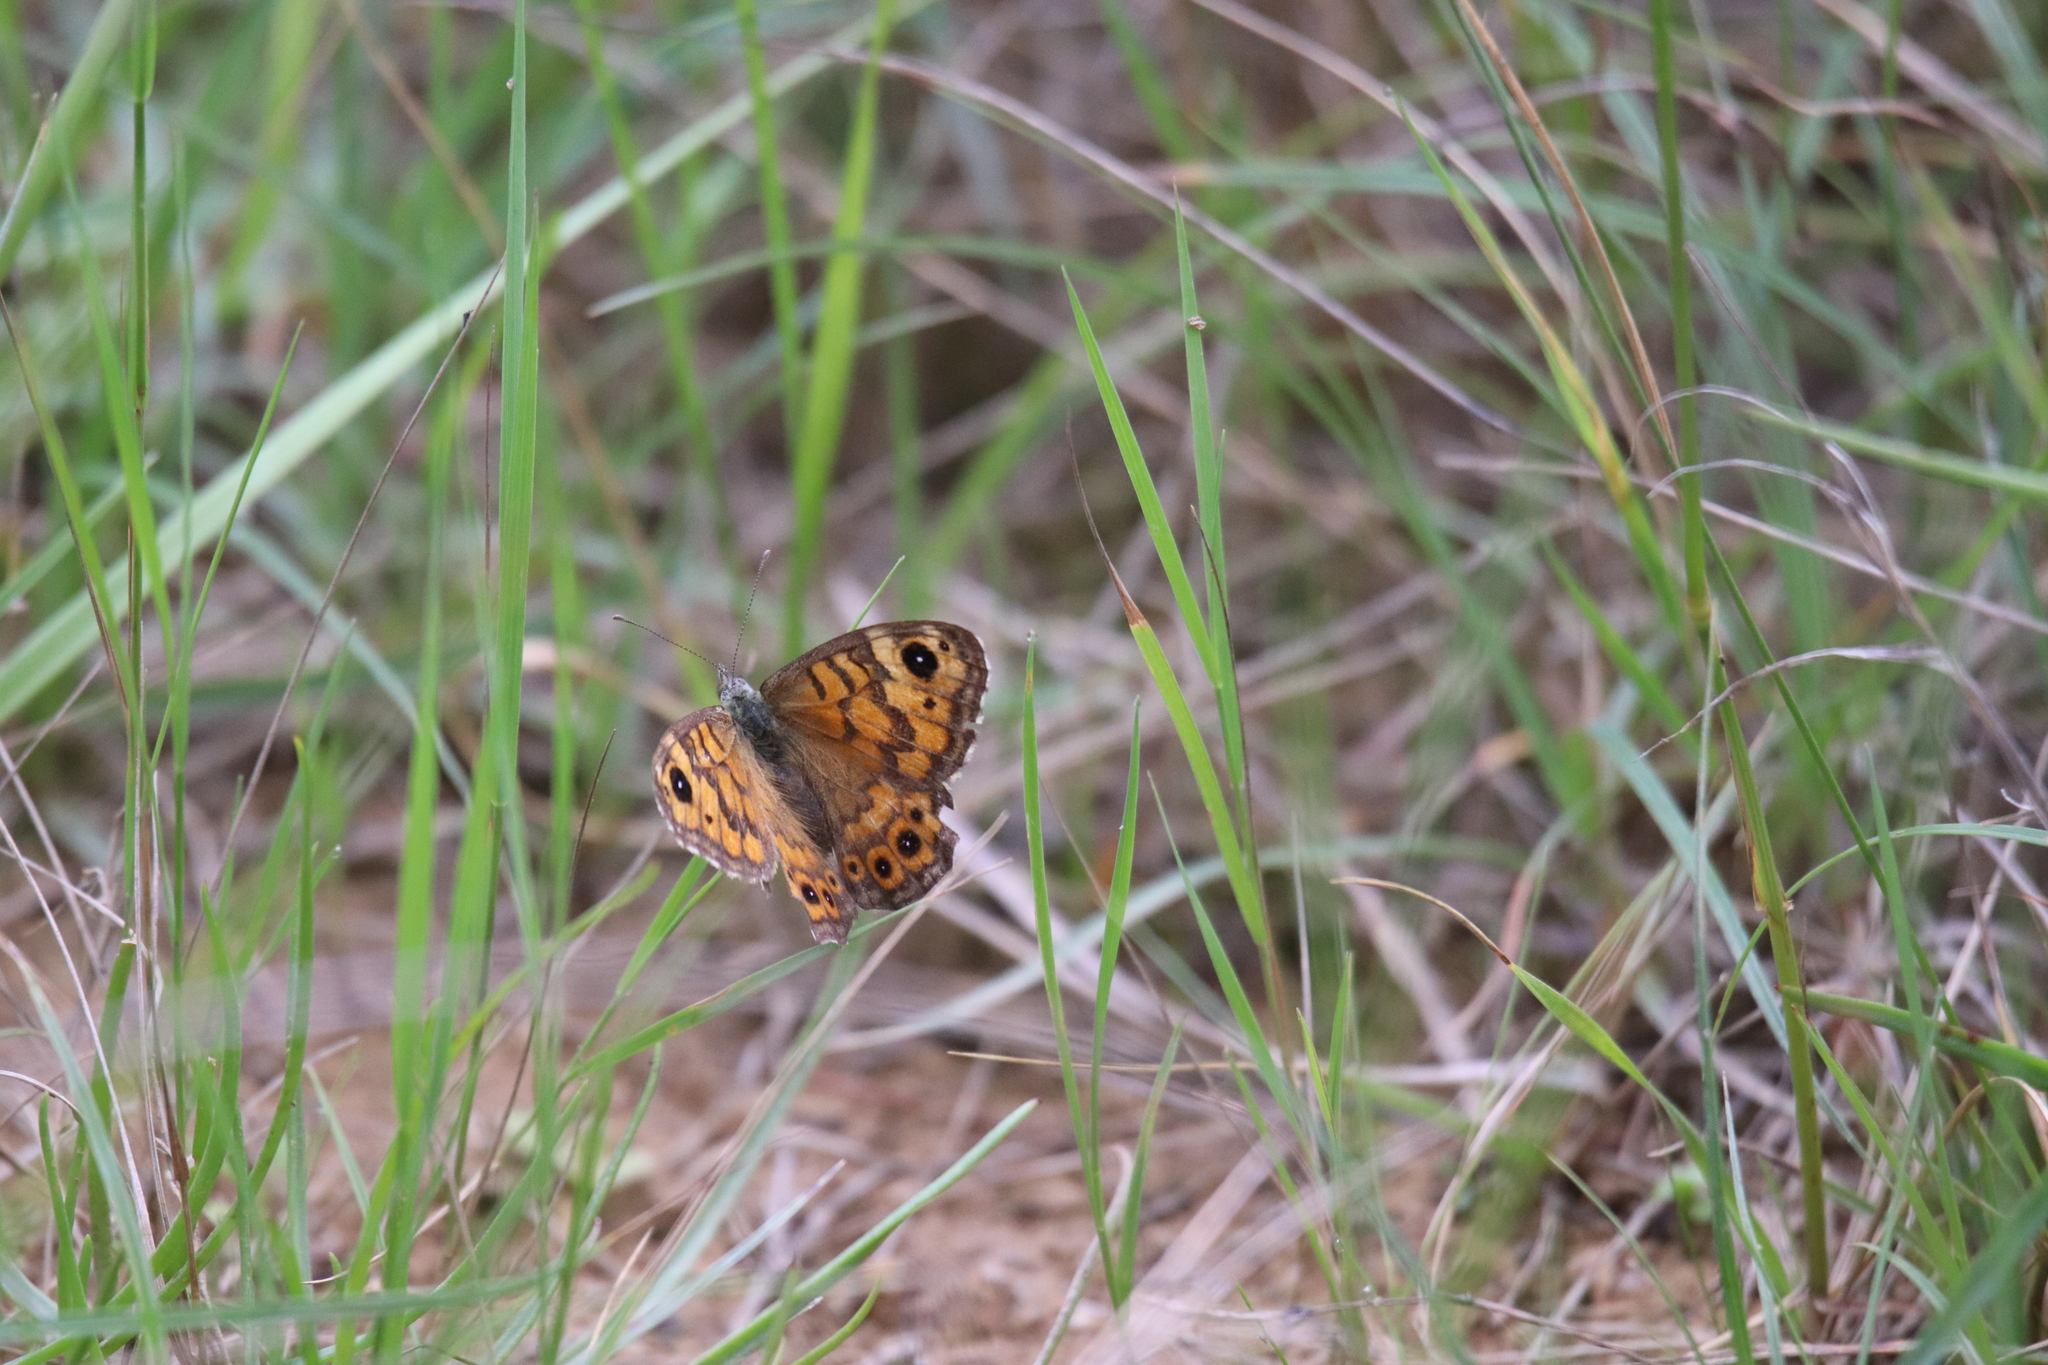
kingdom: Animalia
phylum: Arthropoda
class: Insecta
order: Lepidoptera
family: Nymphalidae
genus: Pararge
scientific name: Pararge Lasiommata megera
